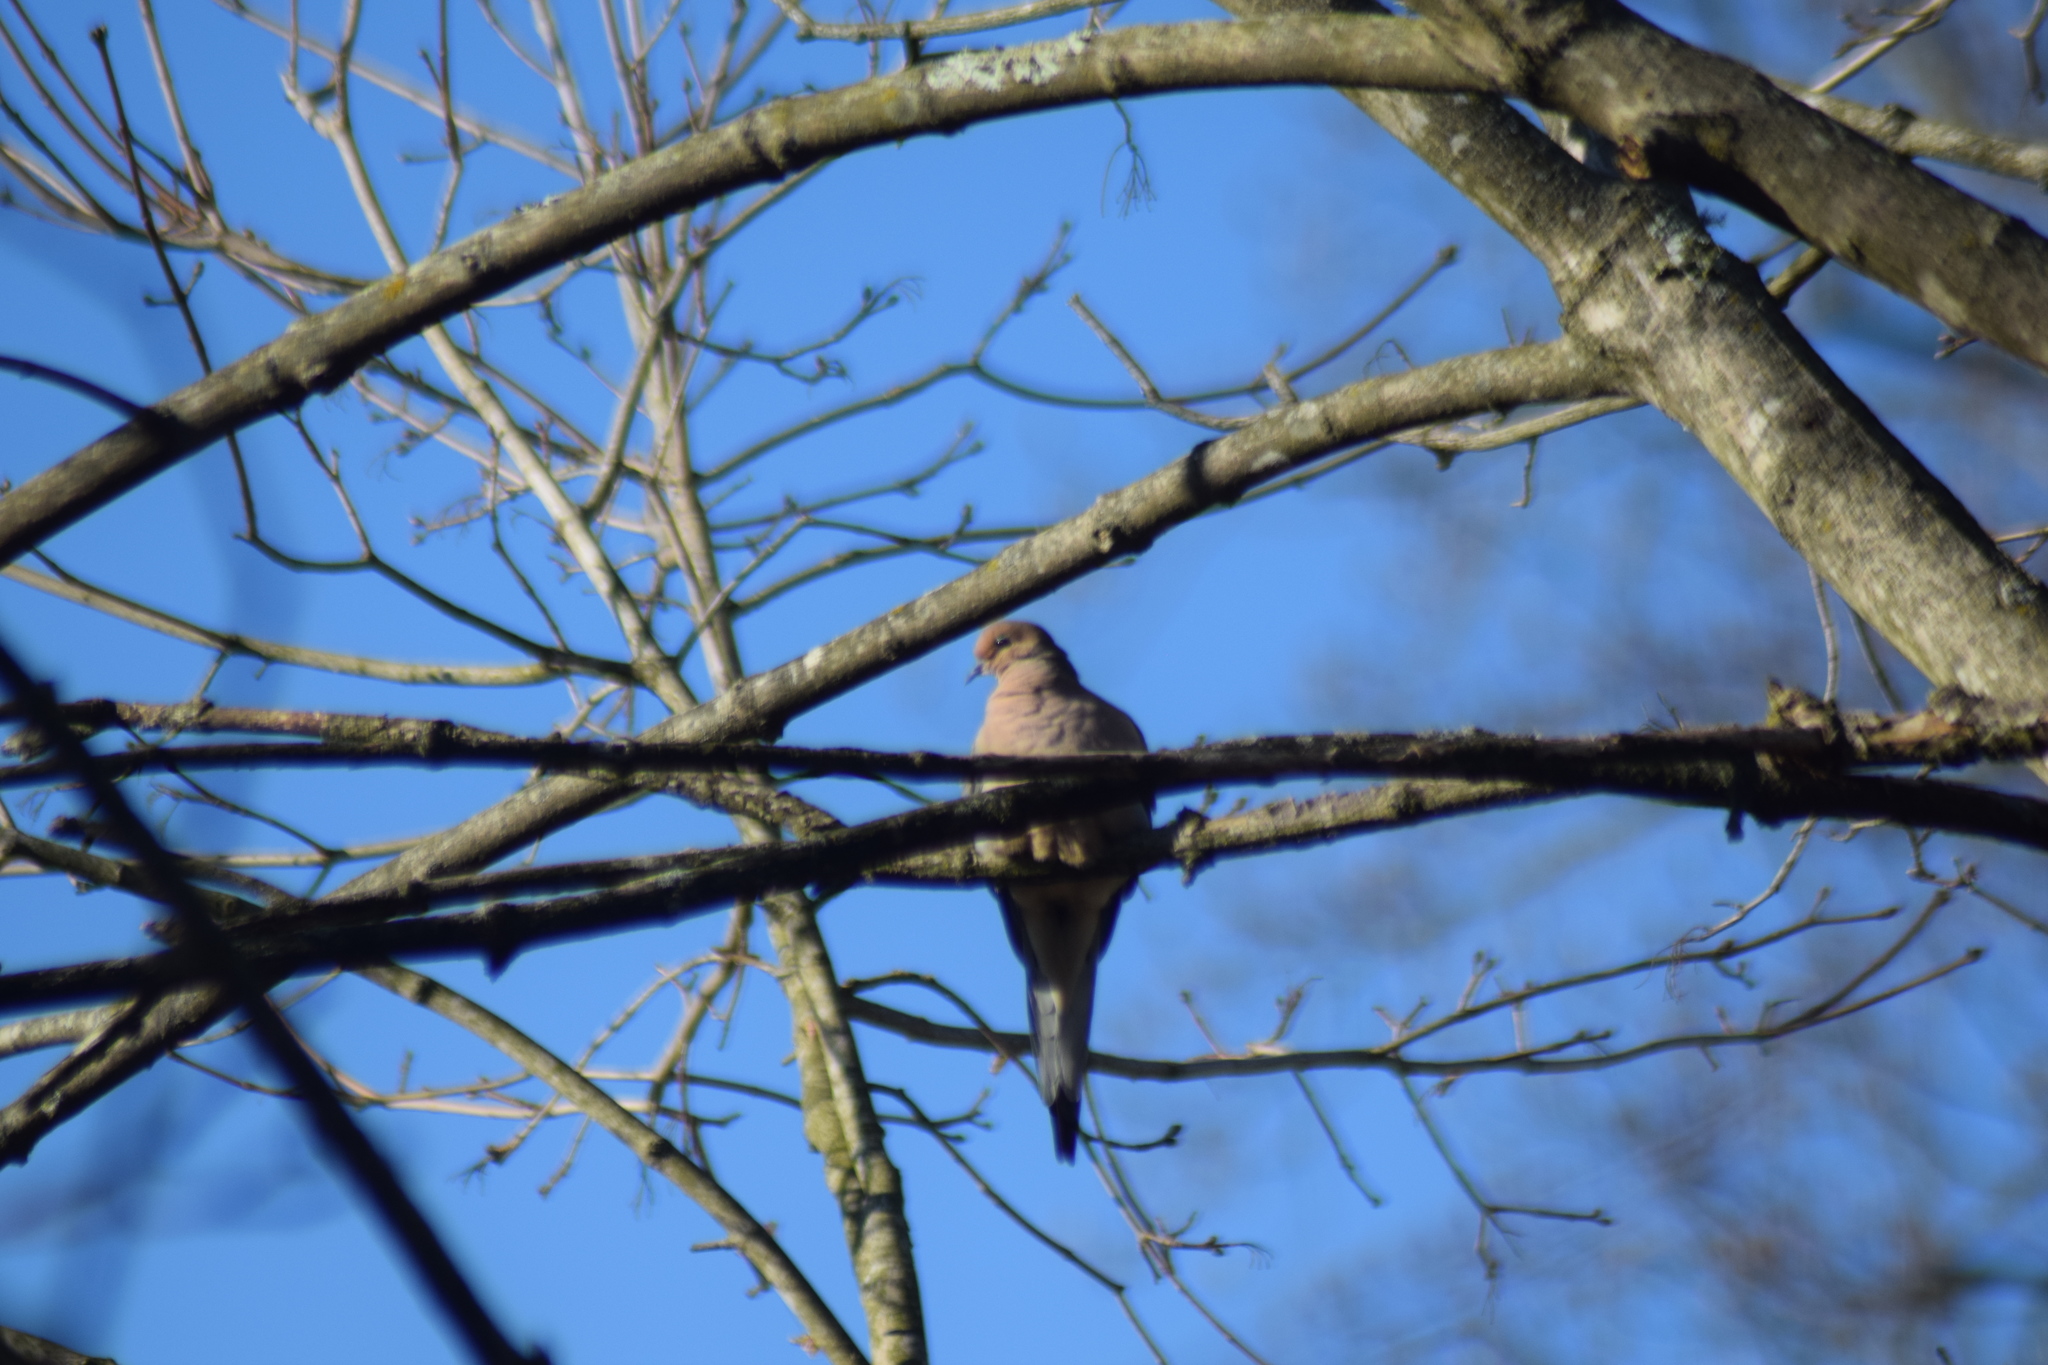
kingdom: Animalia
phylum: Chordata
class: Aves
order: Columbiformes
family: Columbidae
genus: Zenaida
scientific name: Zenaida macroura
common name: Mourning dove
